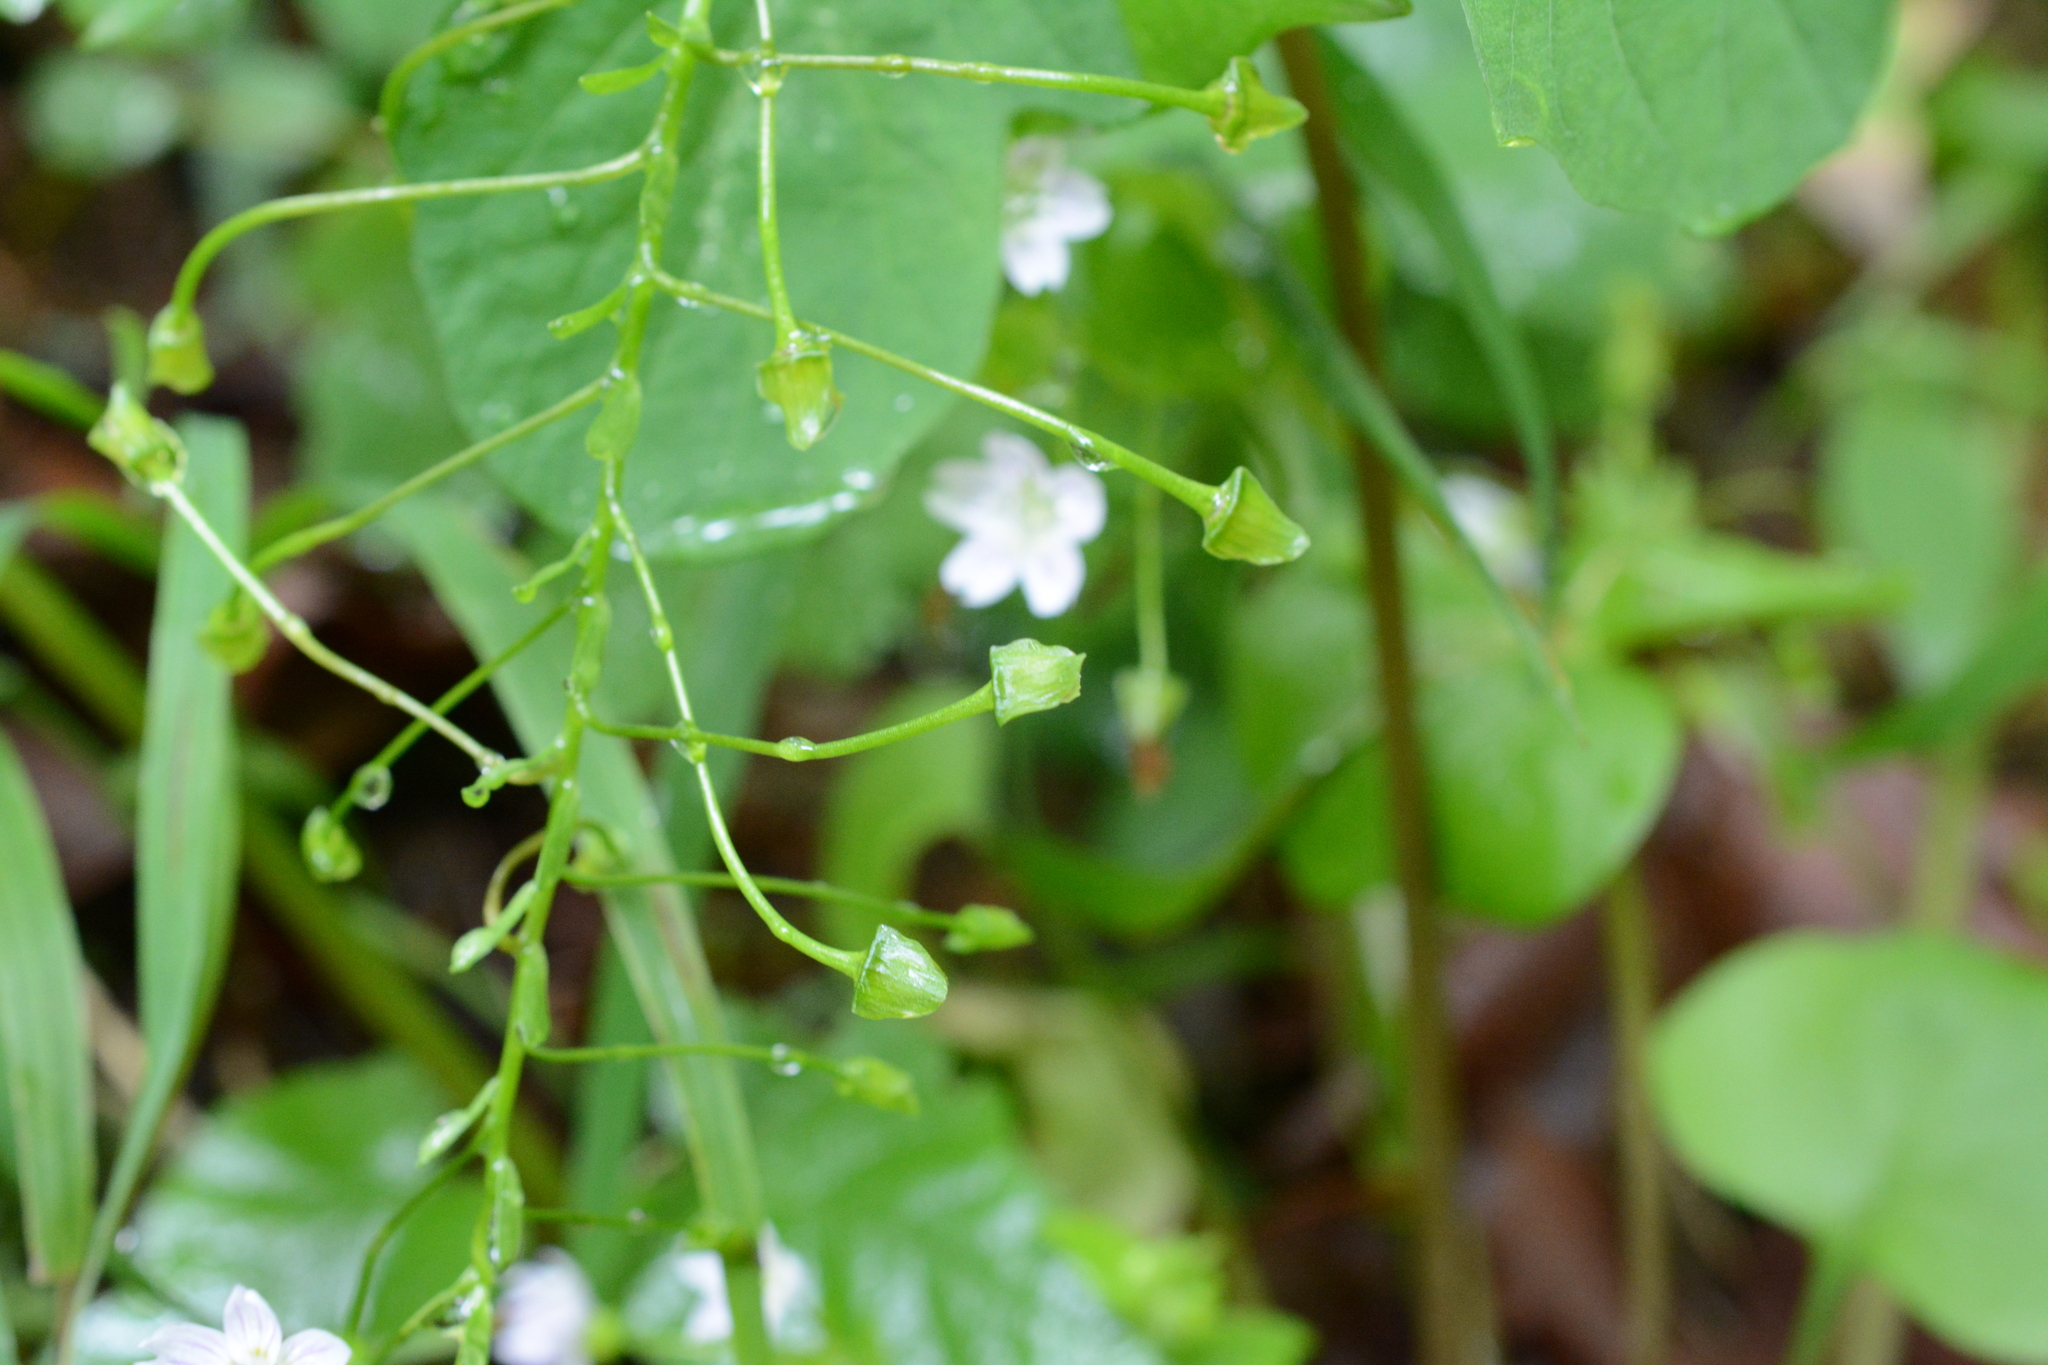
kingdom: Plantae
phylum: Tracheophyta
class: Magnoliopsida
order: Caryophyllales
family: Montiaceae
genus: Claytonia
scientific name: Claytonia sibirica
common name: Pink purslane
